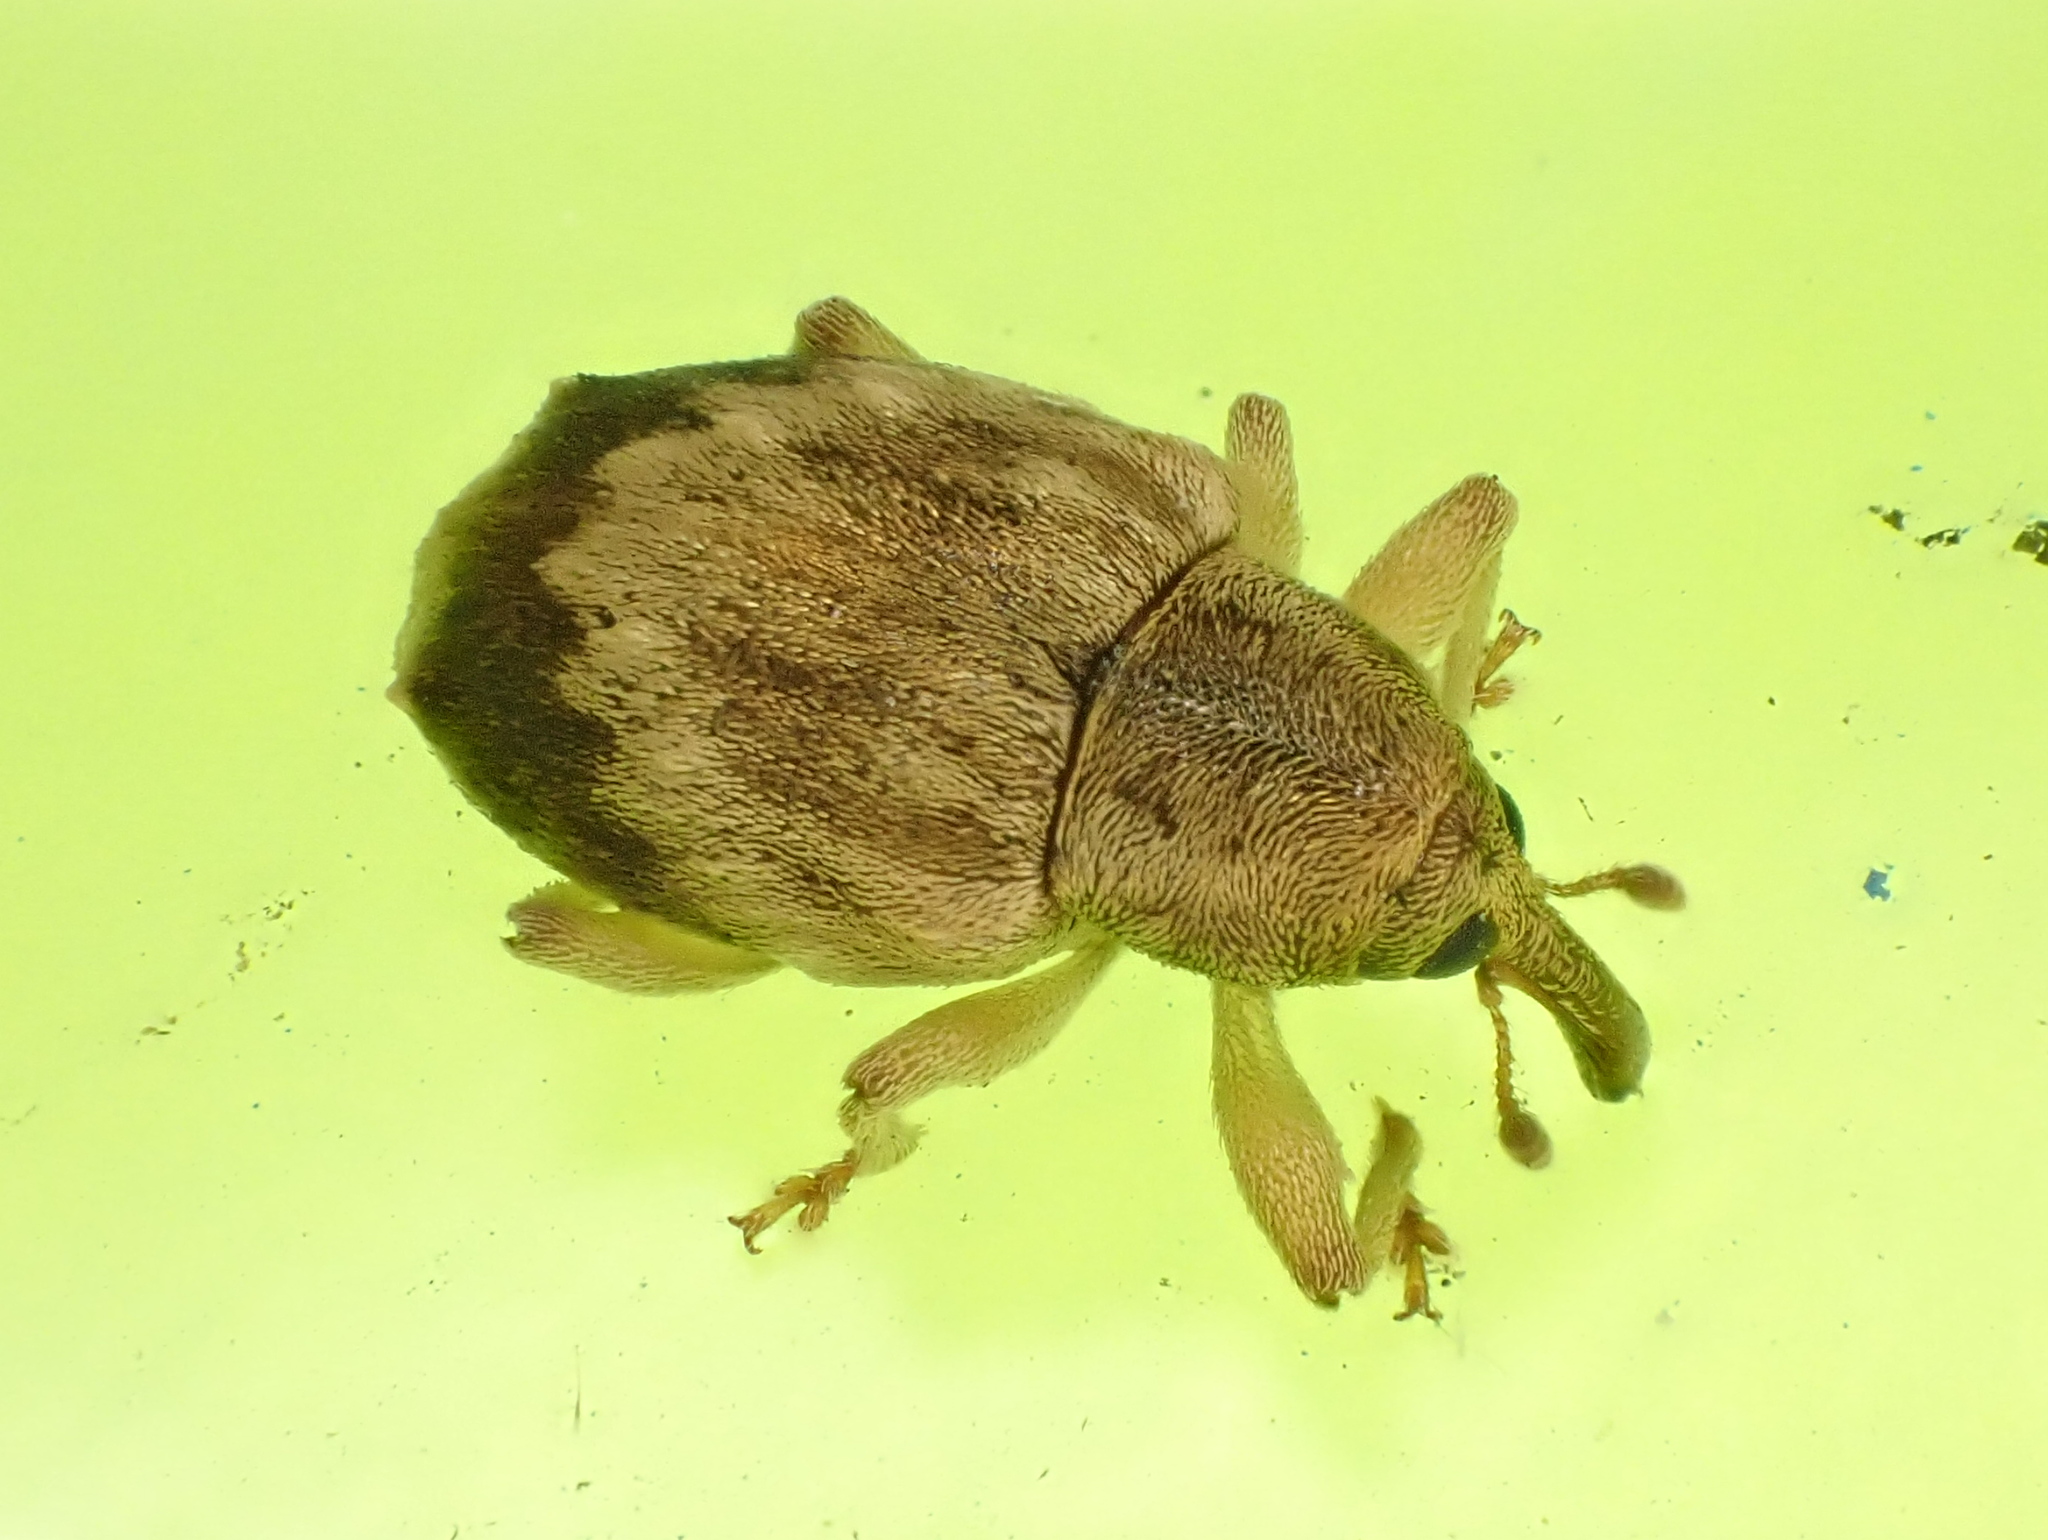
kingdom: Animalia
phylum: Arthropoda
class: Insecta
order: Coleoptera
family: Curculionidae
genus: Aneuma
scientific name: Aneuma compta
